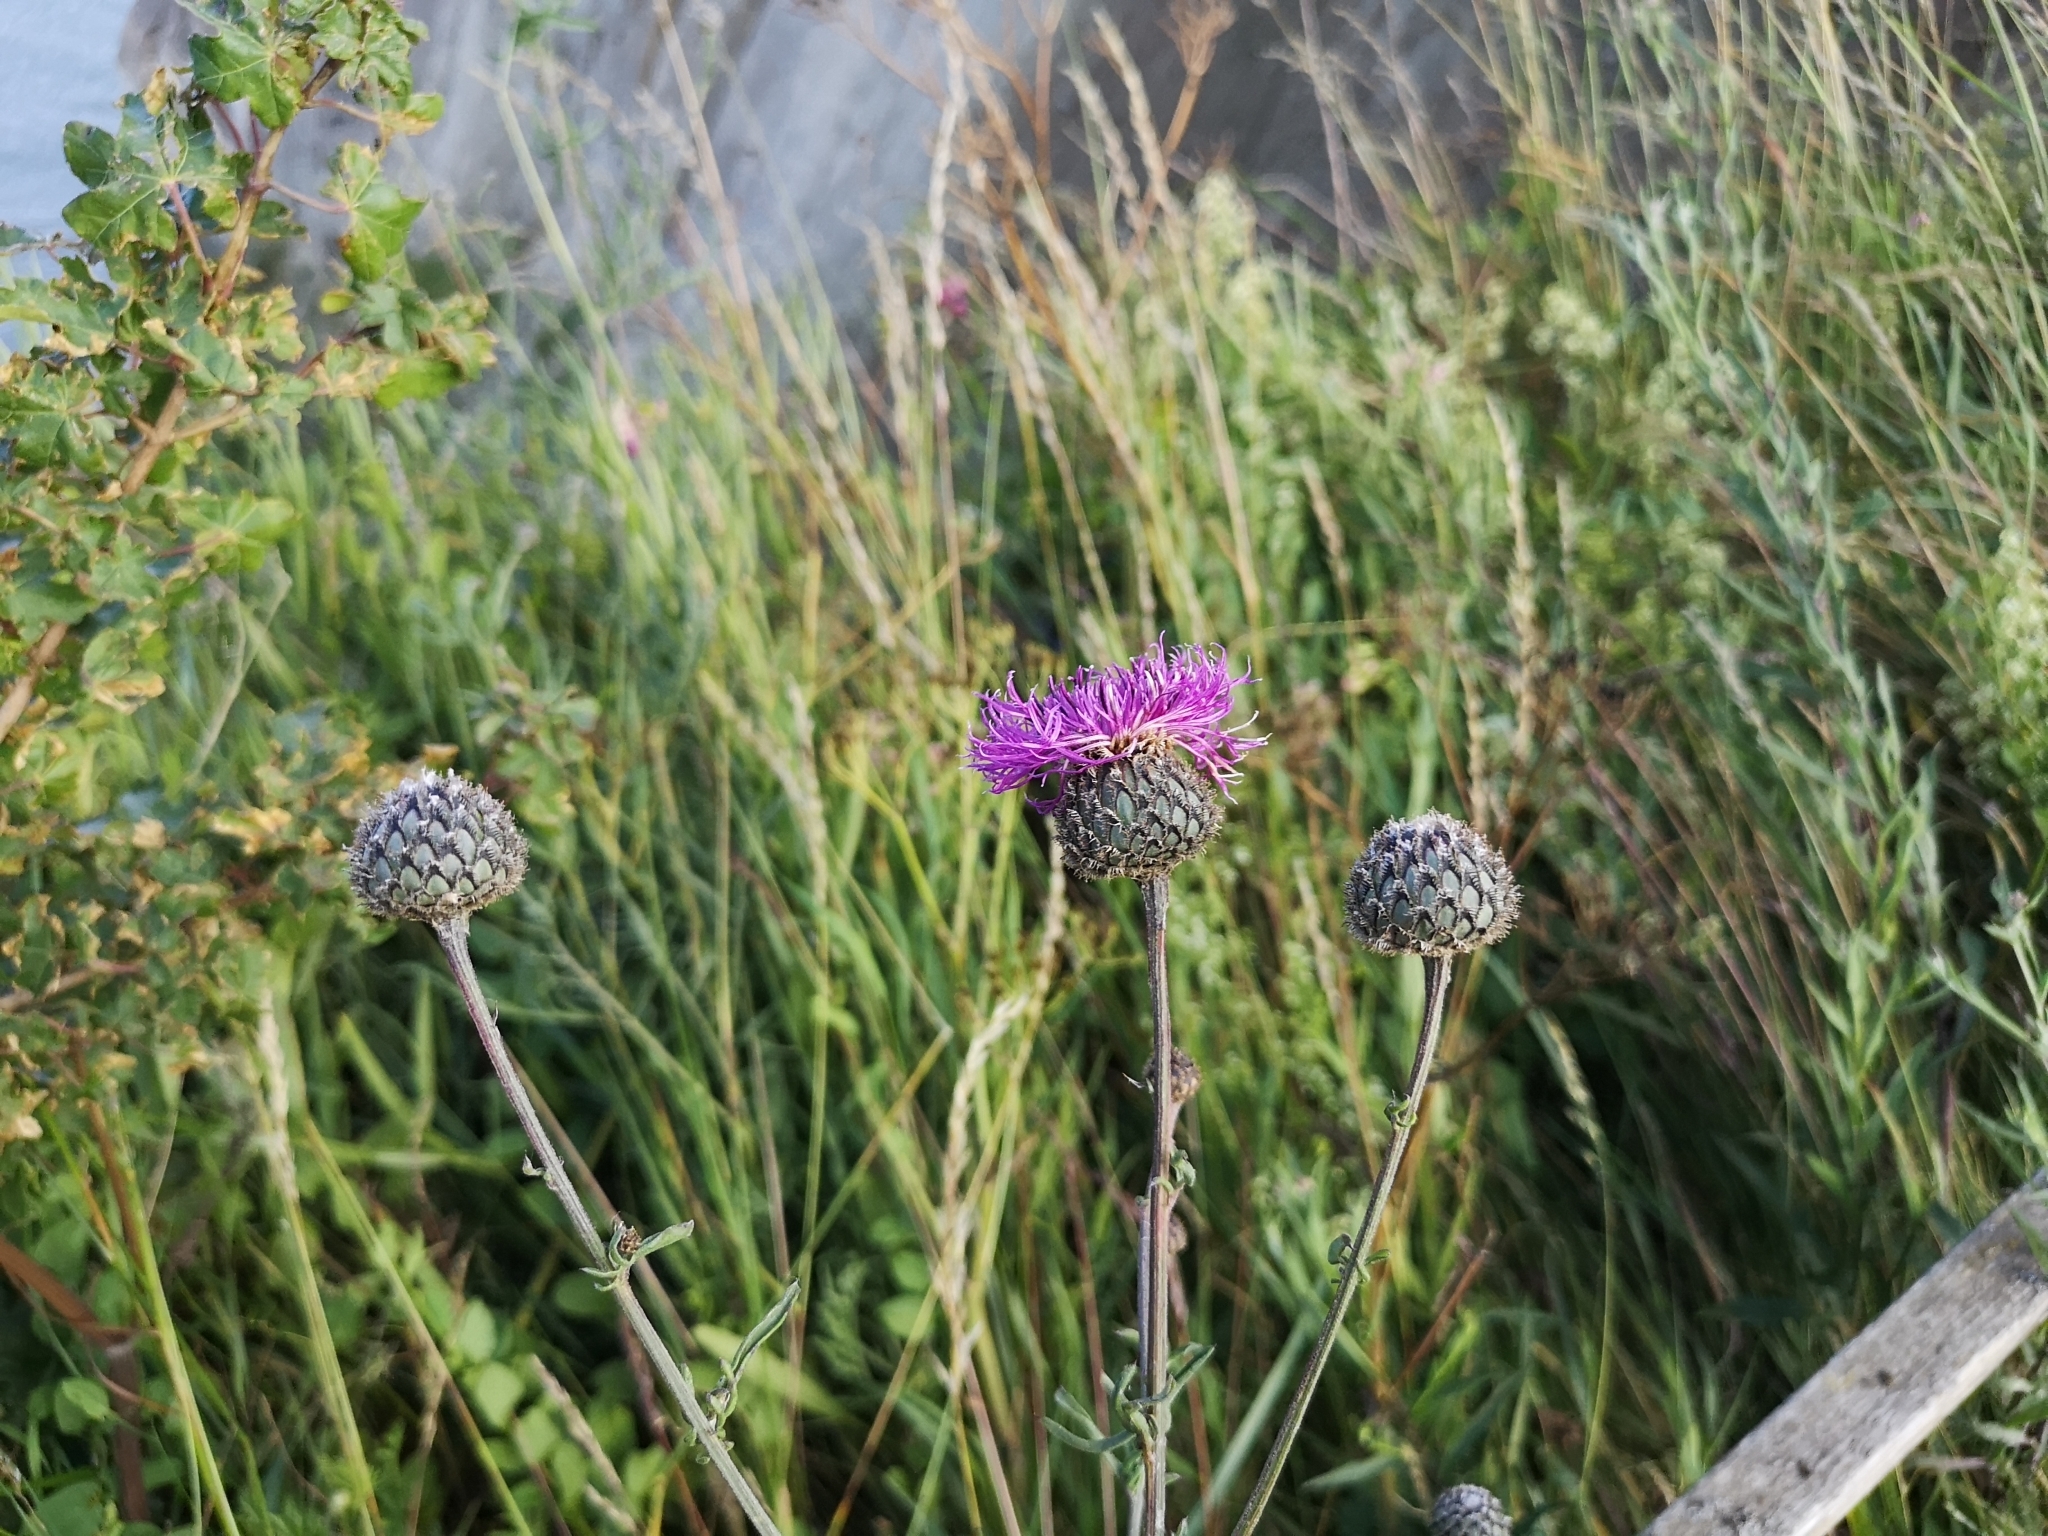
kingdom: Plantae
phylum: Tracheophyta
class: Magnoliopsida
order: Asterales
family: Asteraceae
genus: Centaurea
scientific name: Centaurea scabiosa
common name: Greater knapweed
